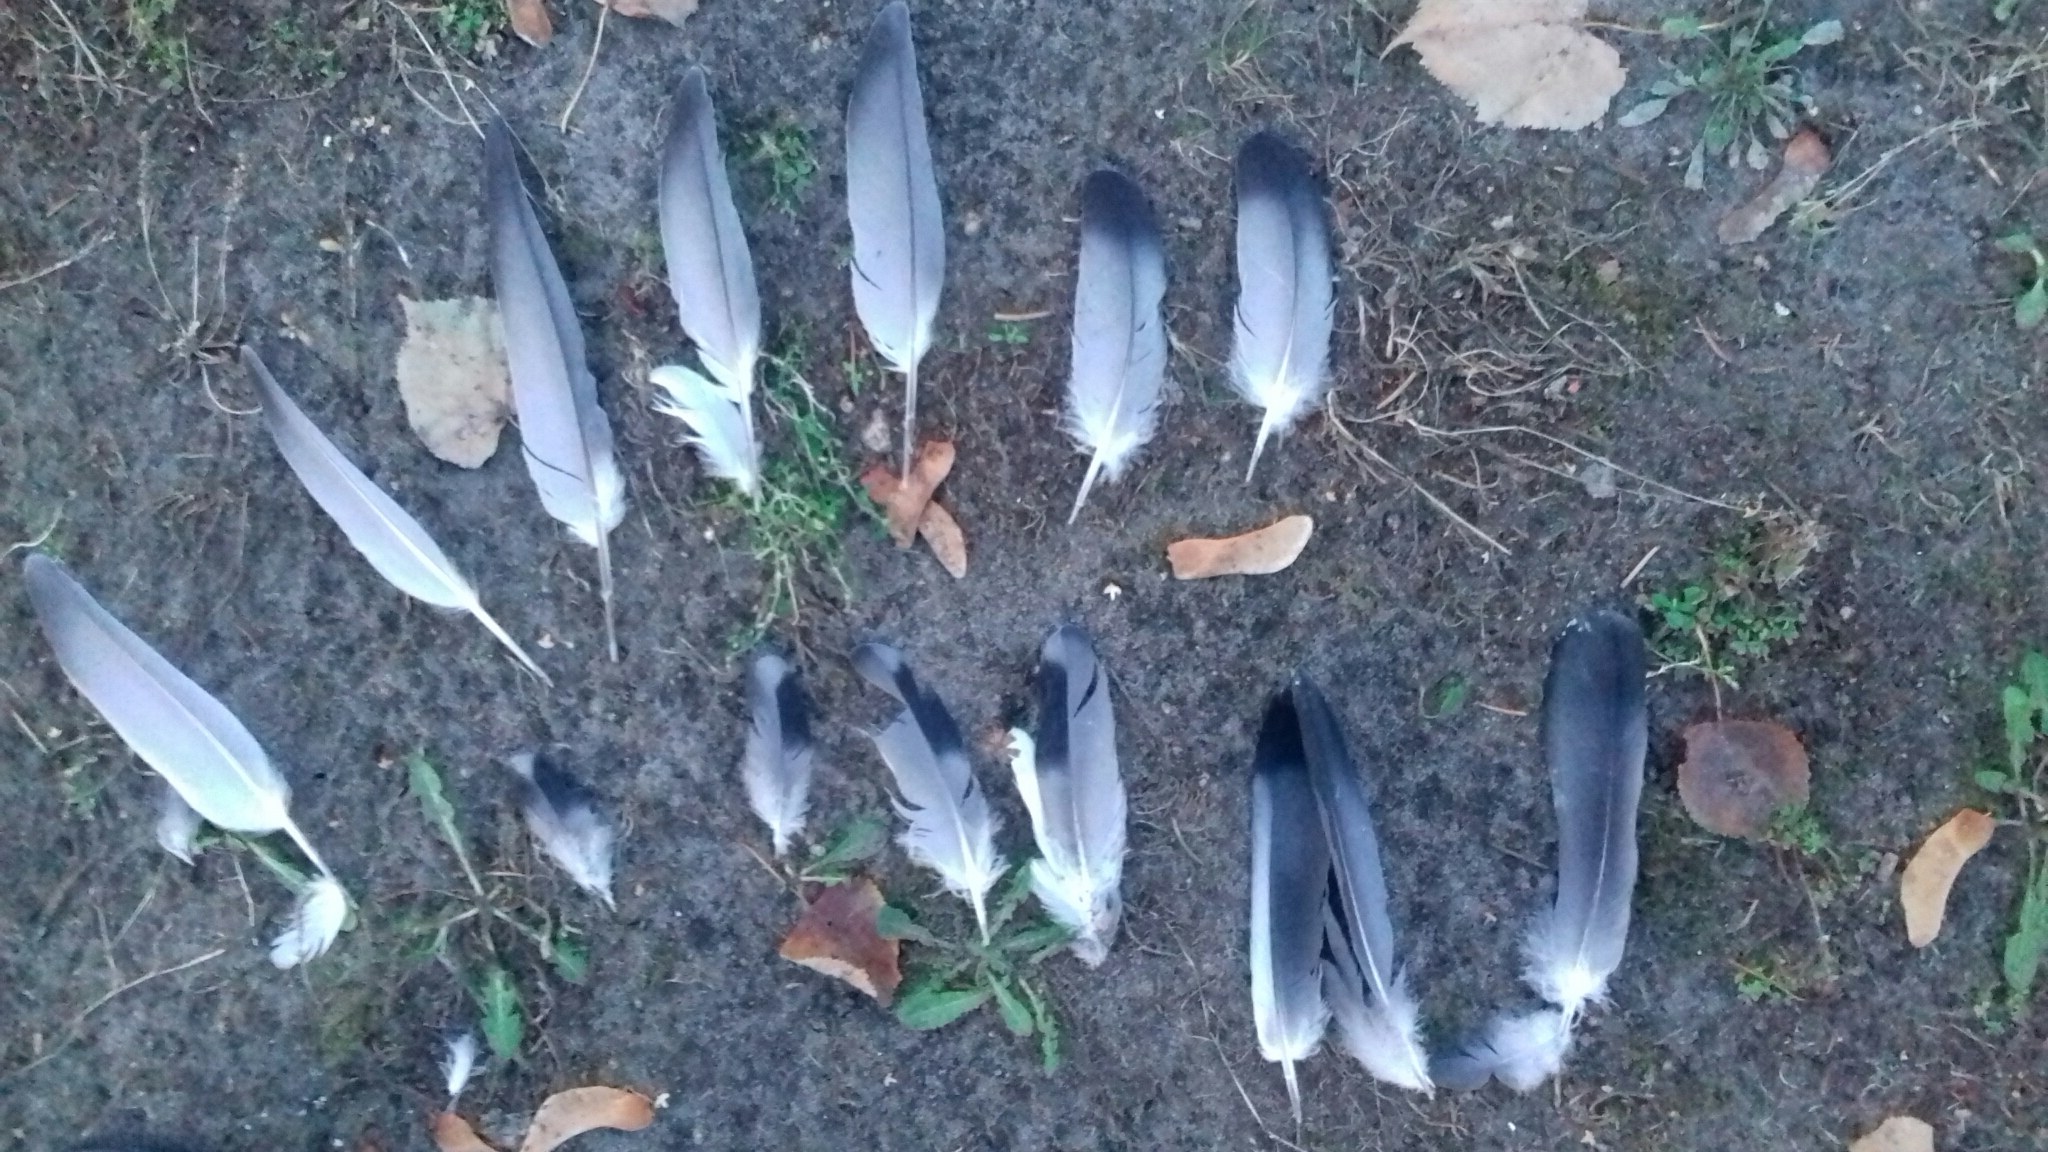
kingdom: Animalia
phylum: Chordata
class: Aves
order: Columbiformes
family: Columbidae
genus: Columba
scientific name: Columba livia
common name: Rock pigeon
